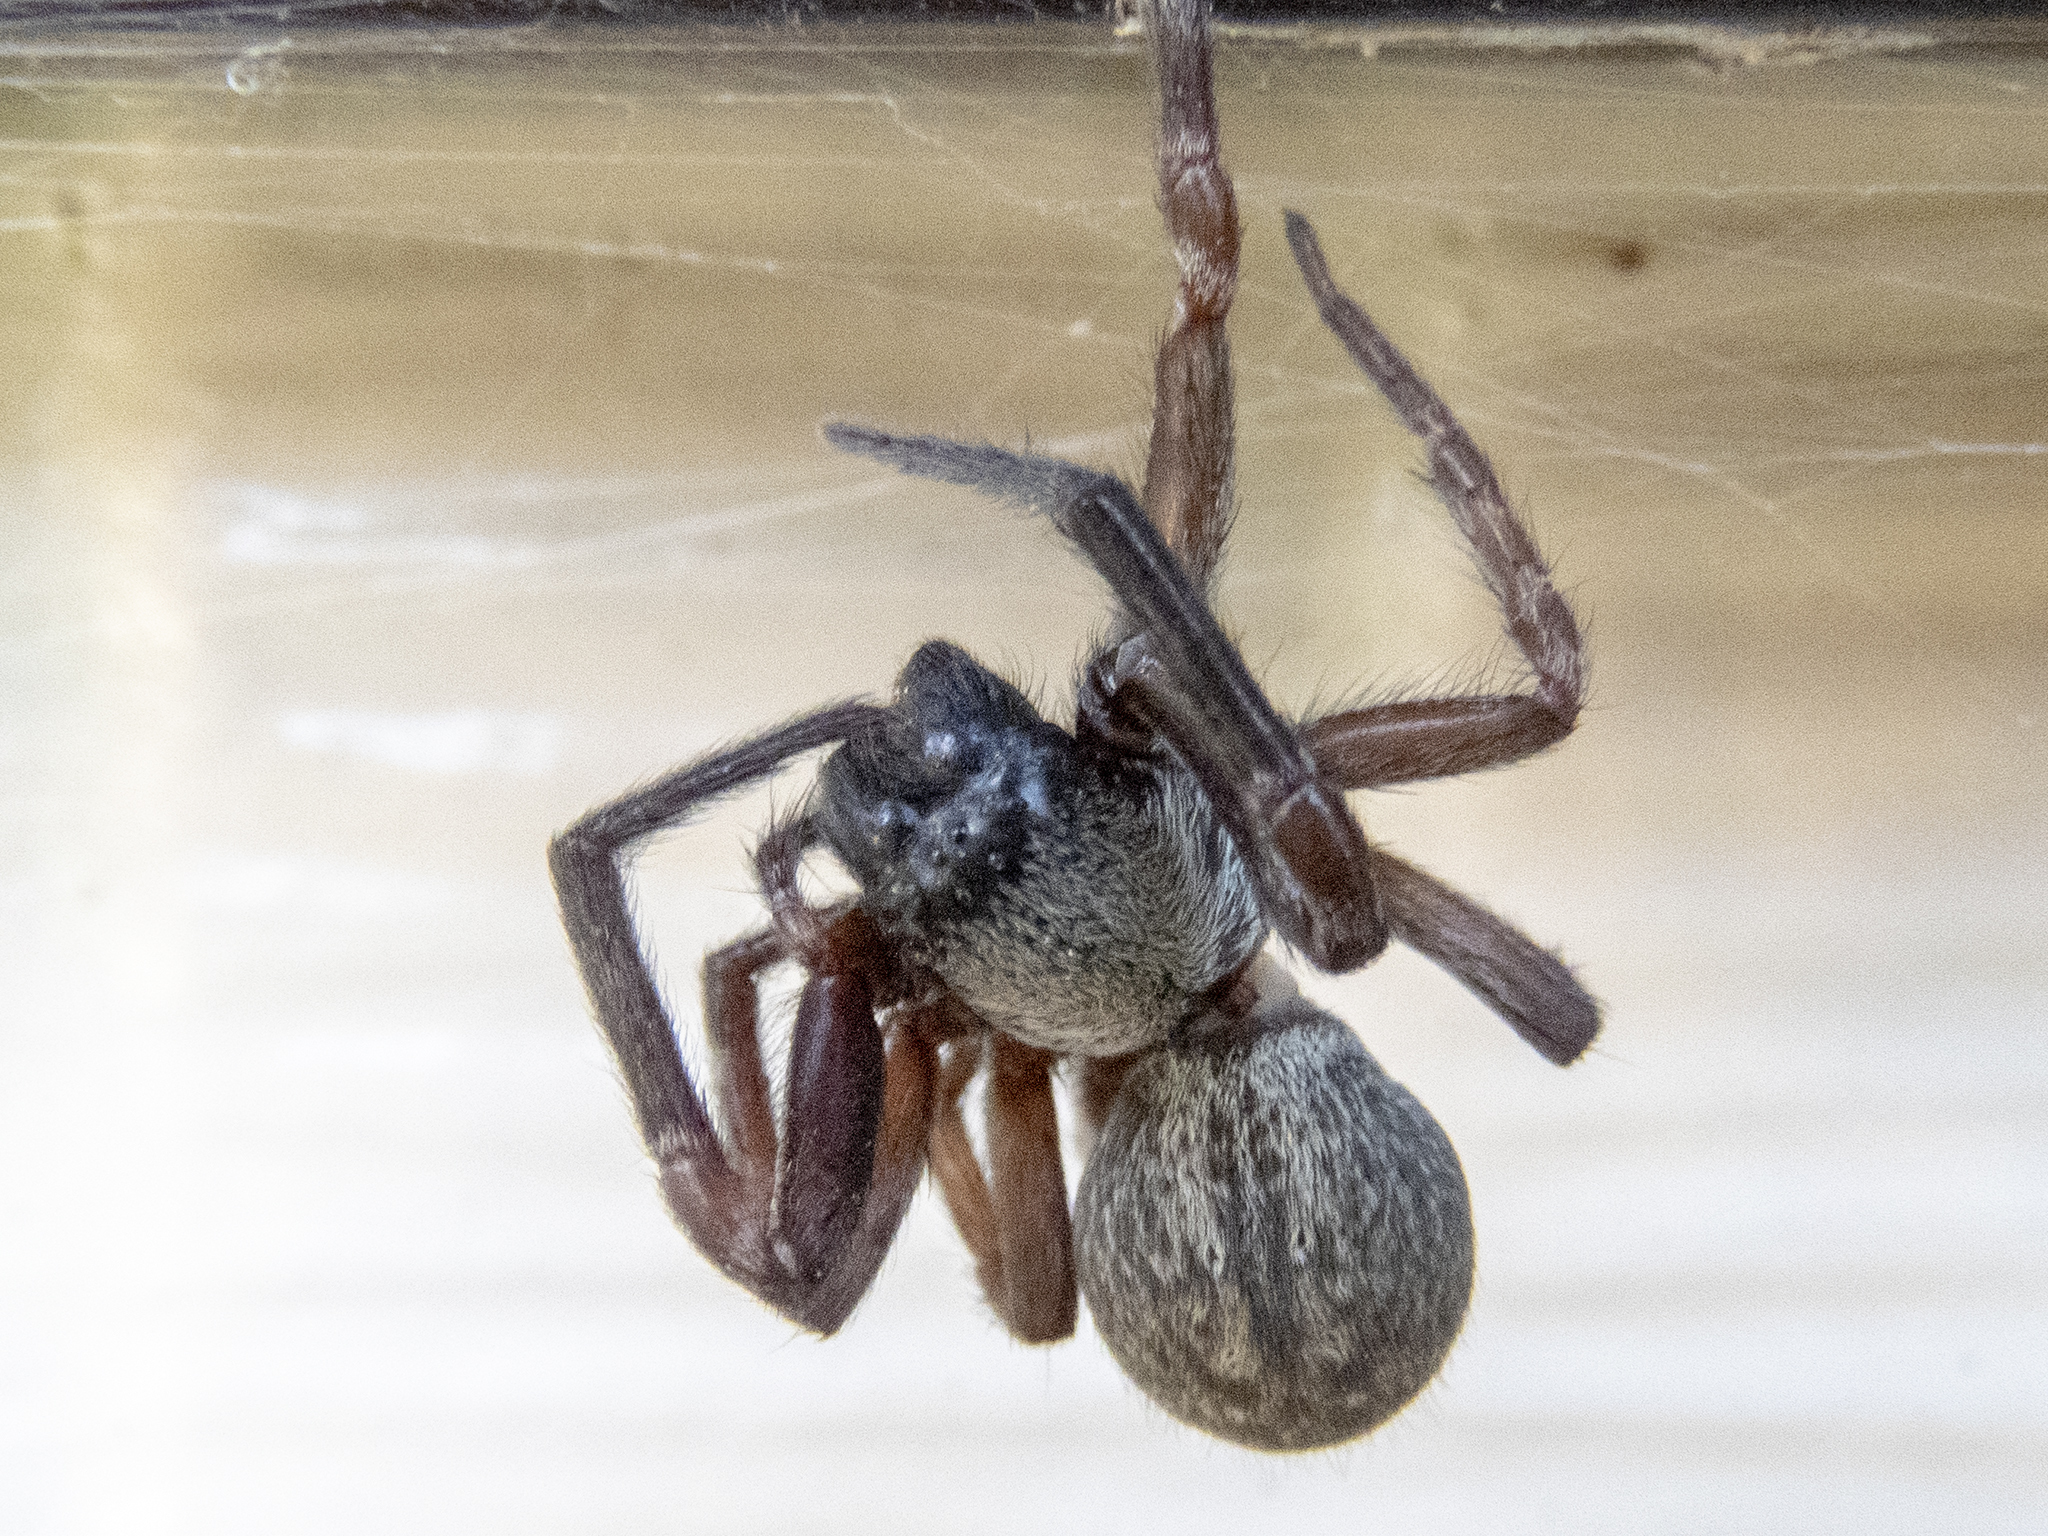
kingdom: Animalia
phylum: Arthropoda
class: Arachnida
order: Araneae
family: Desidae
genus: Badumna
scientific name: Badumna longinqua
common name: Gray house spider
